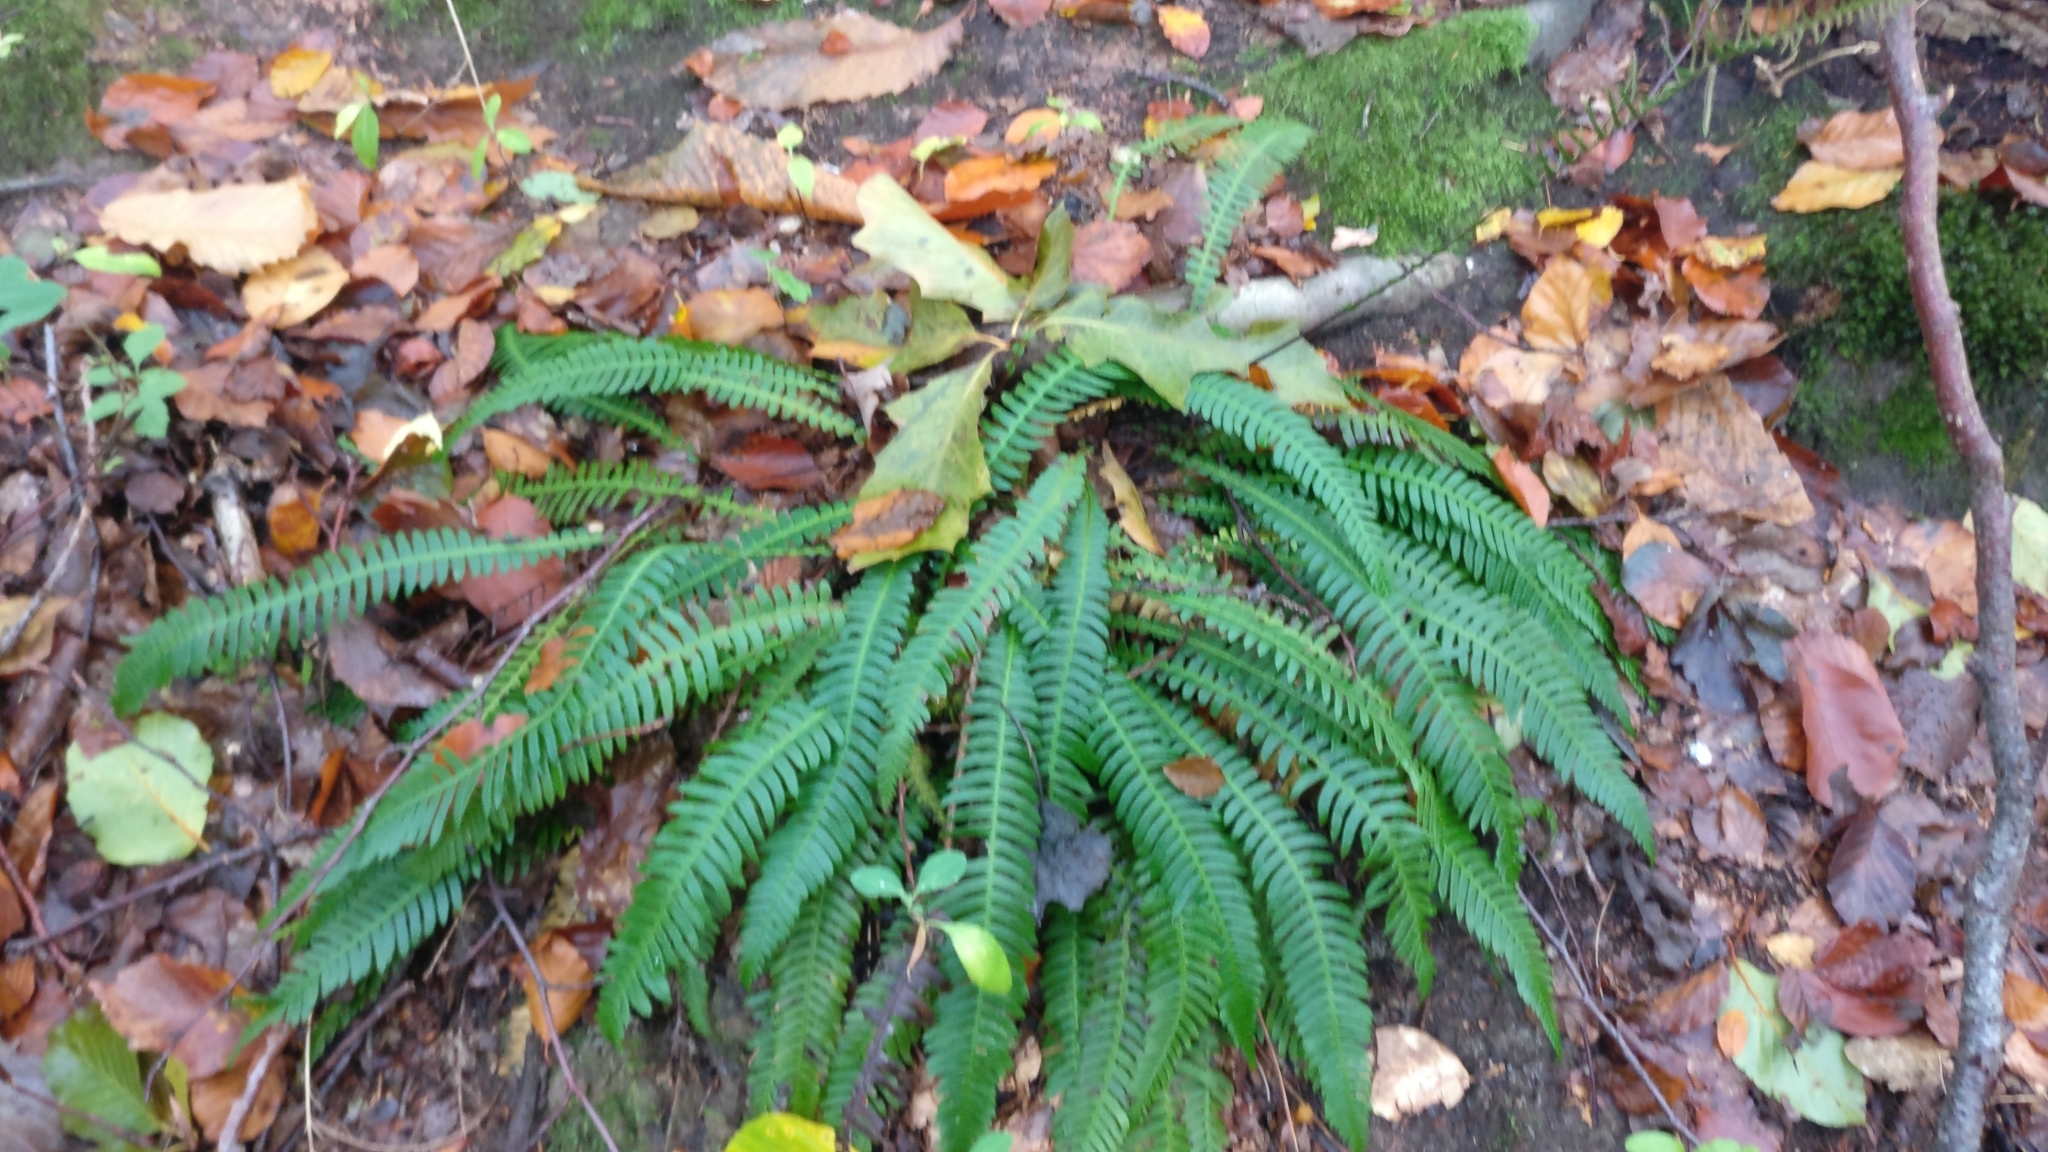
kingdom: Plantae
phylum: Tracheophyta
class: Polypodiopsida
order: Polypodiales
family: Blechnaceae
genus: Struthiopteris
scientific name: Struthiopteris spicant
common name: Deer fern
